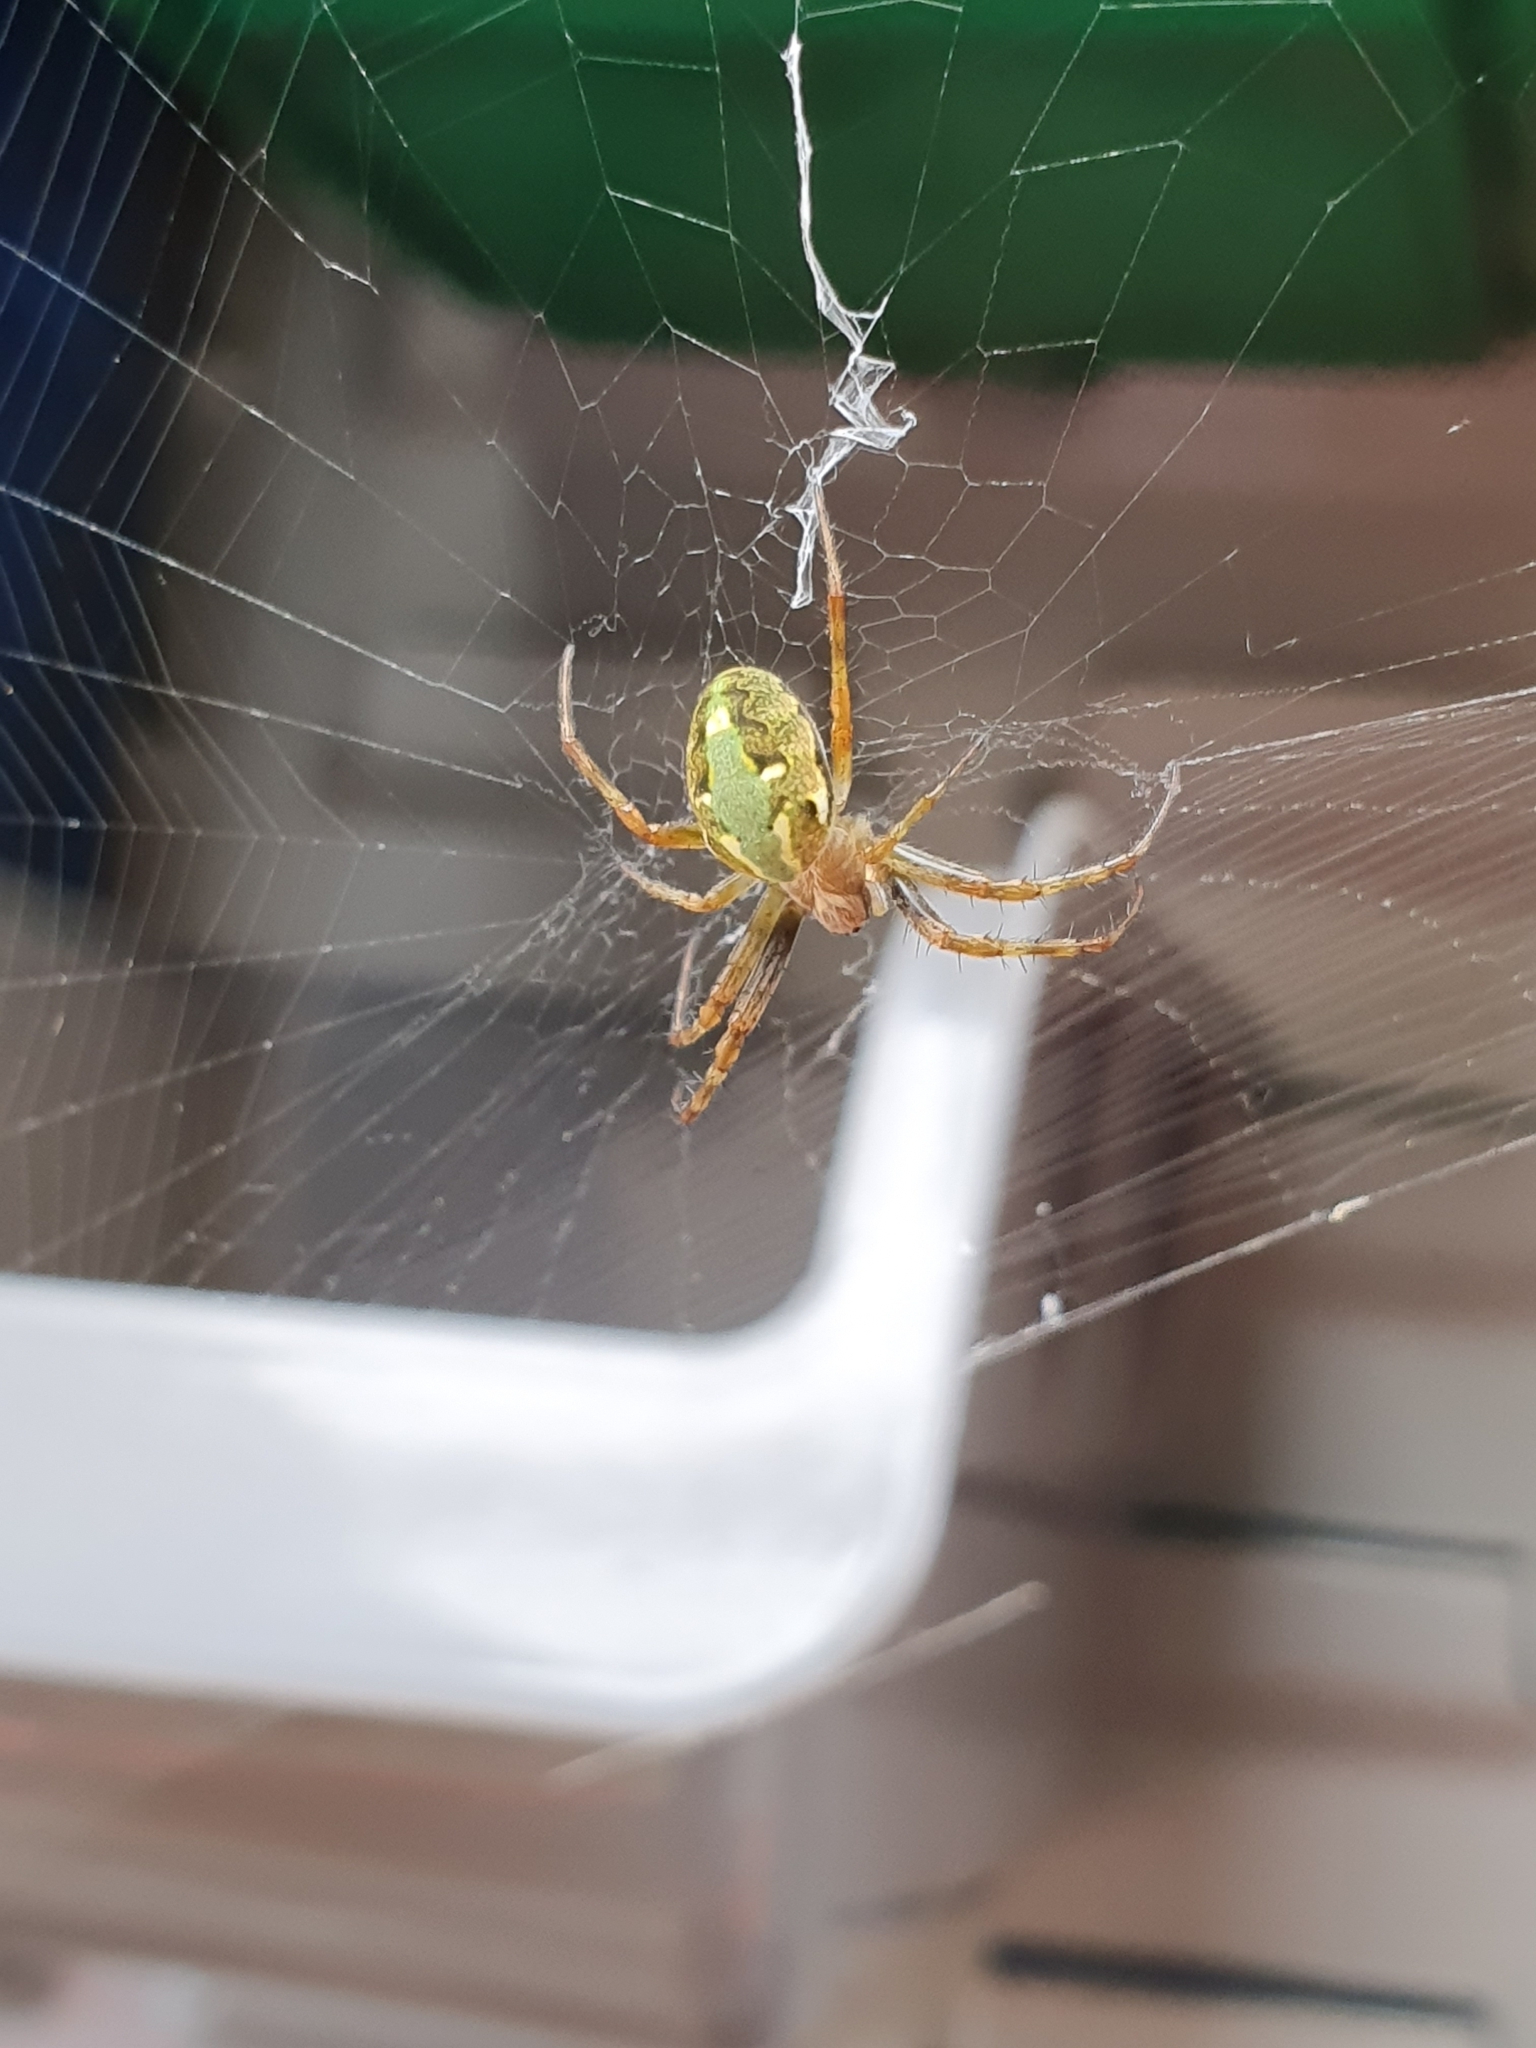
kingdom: Animalia
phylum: Arthropoda
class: Arachnida
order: Araneae
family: Araneidae
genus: Novaranea
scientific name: Novaranea queribunda
